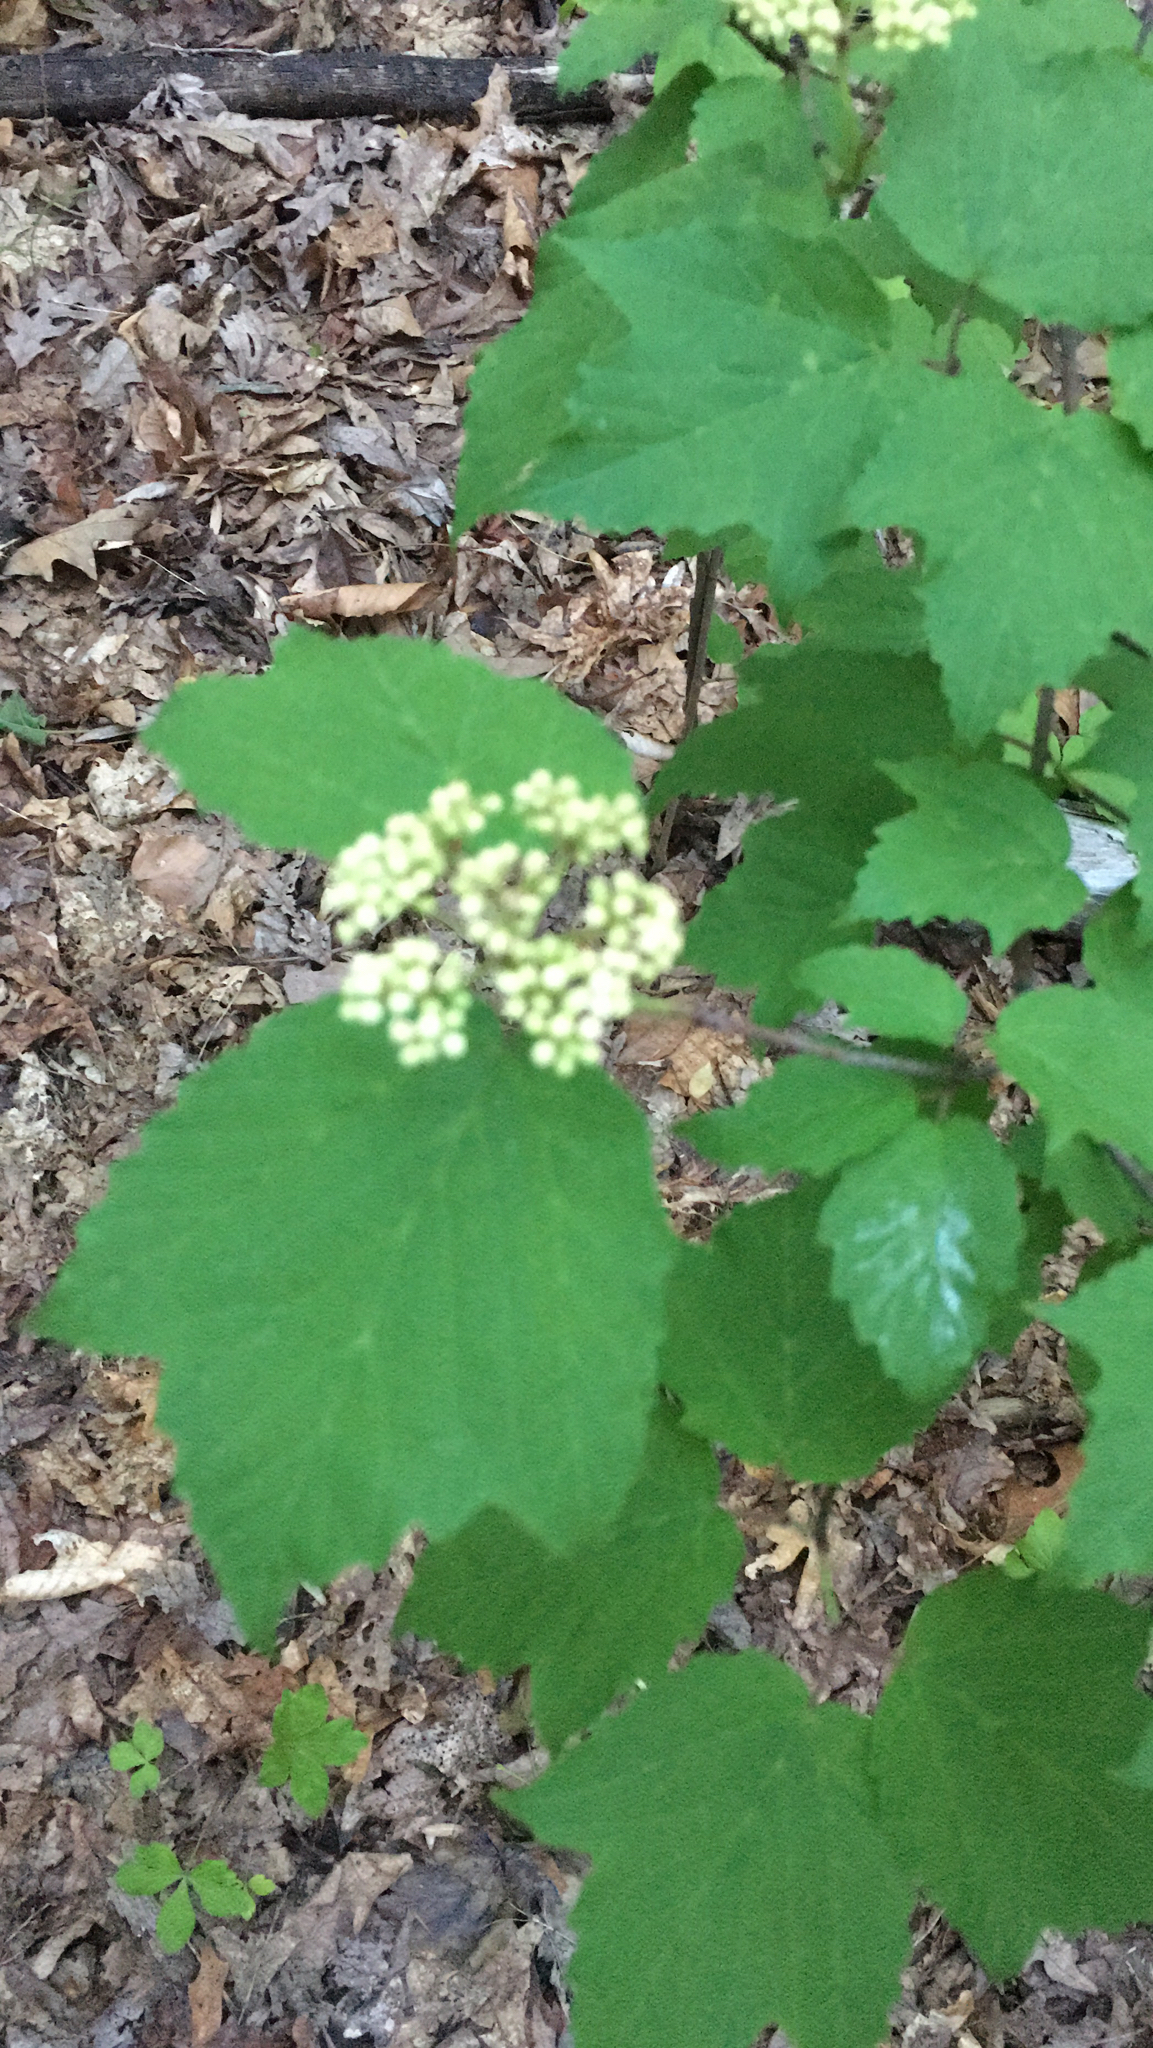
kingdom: Plantae
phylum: Tracheophyta
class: Magnoliopsida
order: Dipsacales
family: Viburnaceae
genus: Viburnum
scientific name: Viburnum acerifolium
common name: Dockmackie
